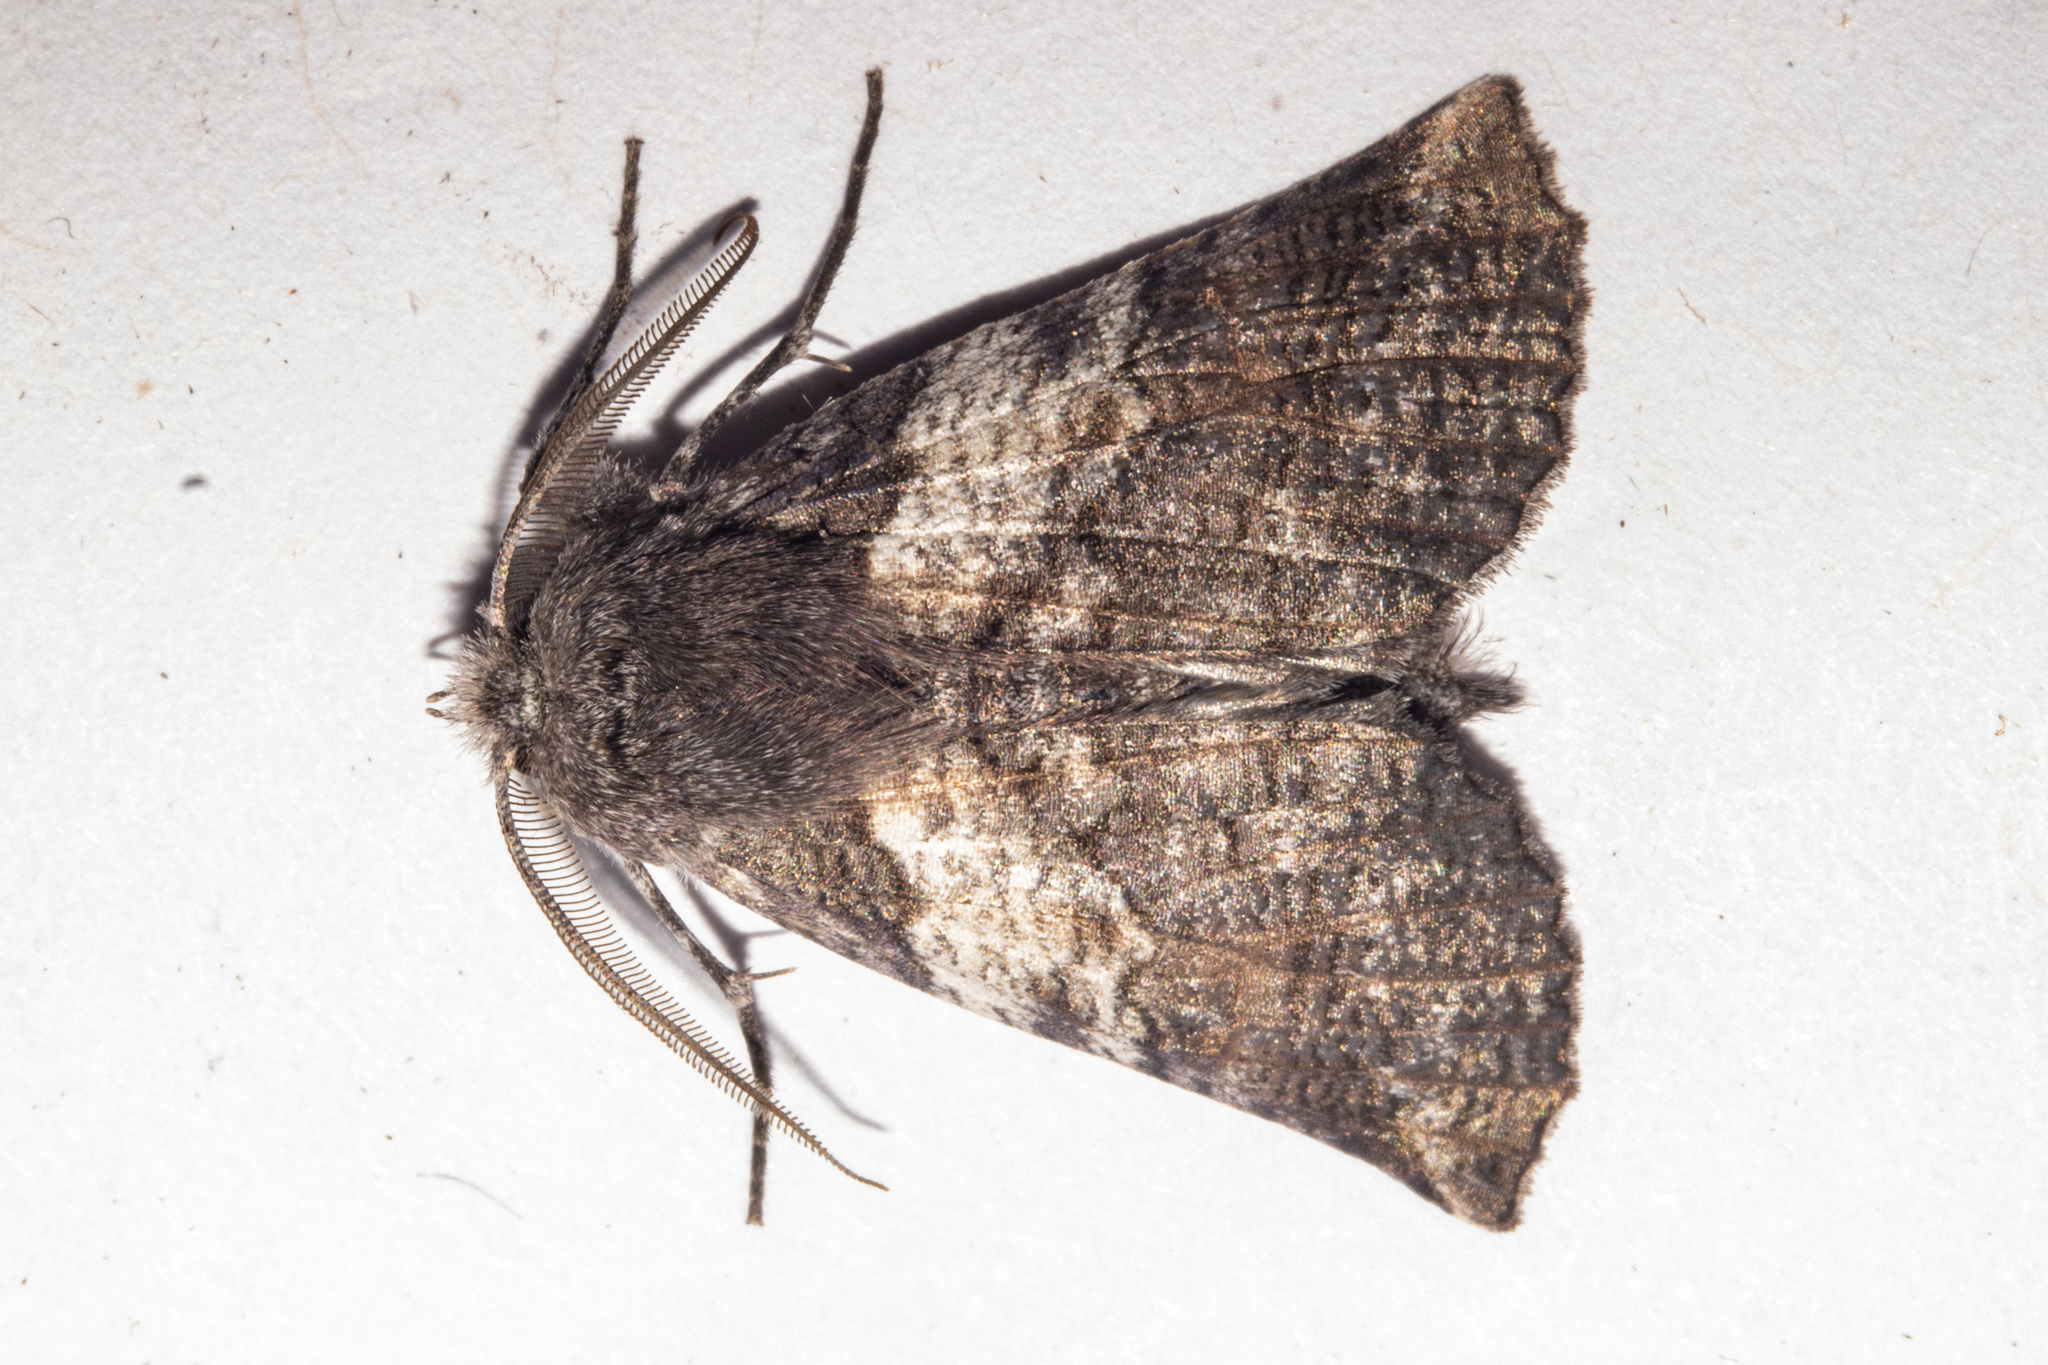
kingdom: Animalia
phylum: Arthropoda
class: Insecta
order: Lepidoptera
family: Geometridae
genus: Declana
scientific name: Declana
